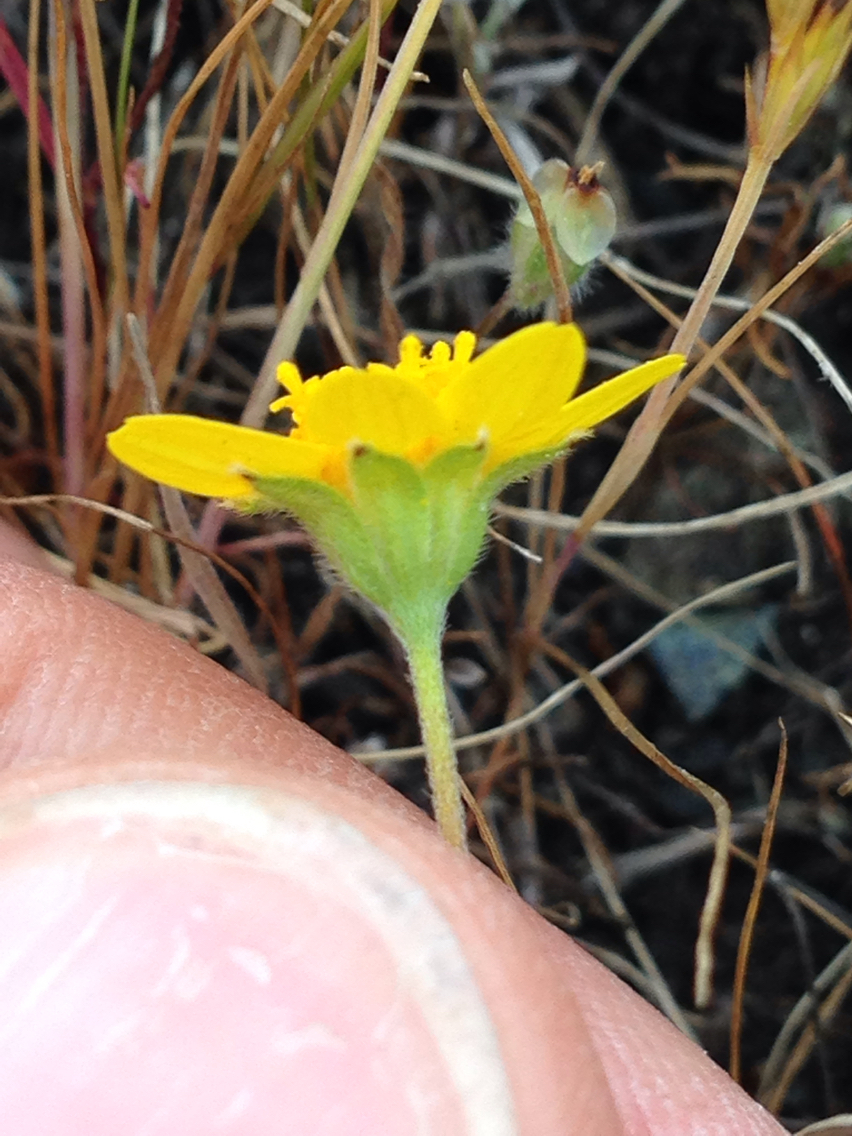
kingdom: Plantae
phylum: Tracheophyta
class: Magnoliopsida
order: Asterales
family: Asteraceae
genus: Lasthenia
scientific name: Lasthenia californica
